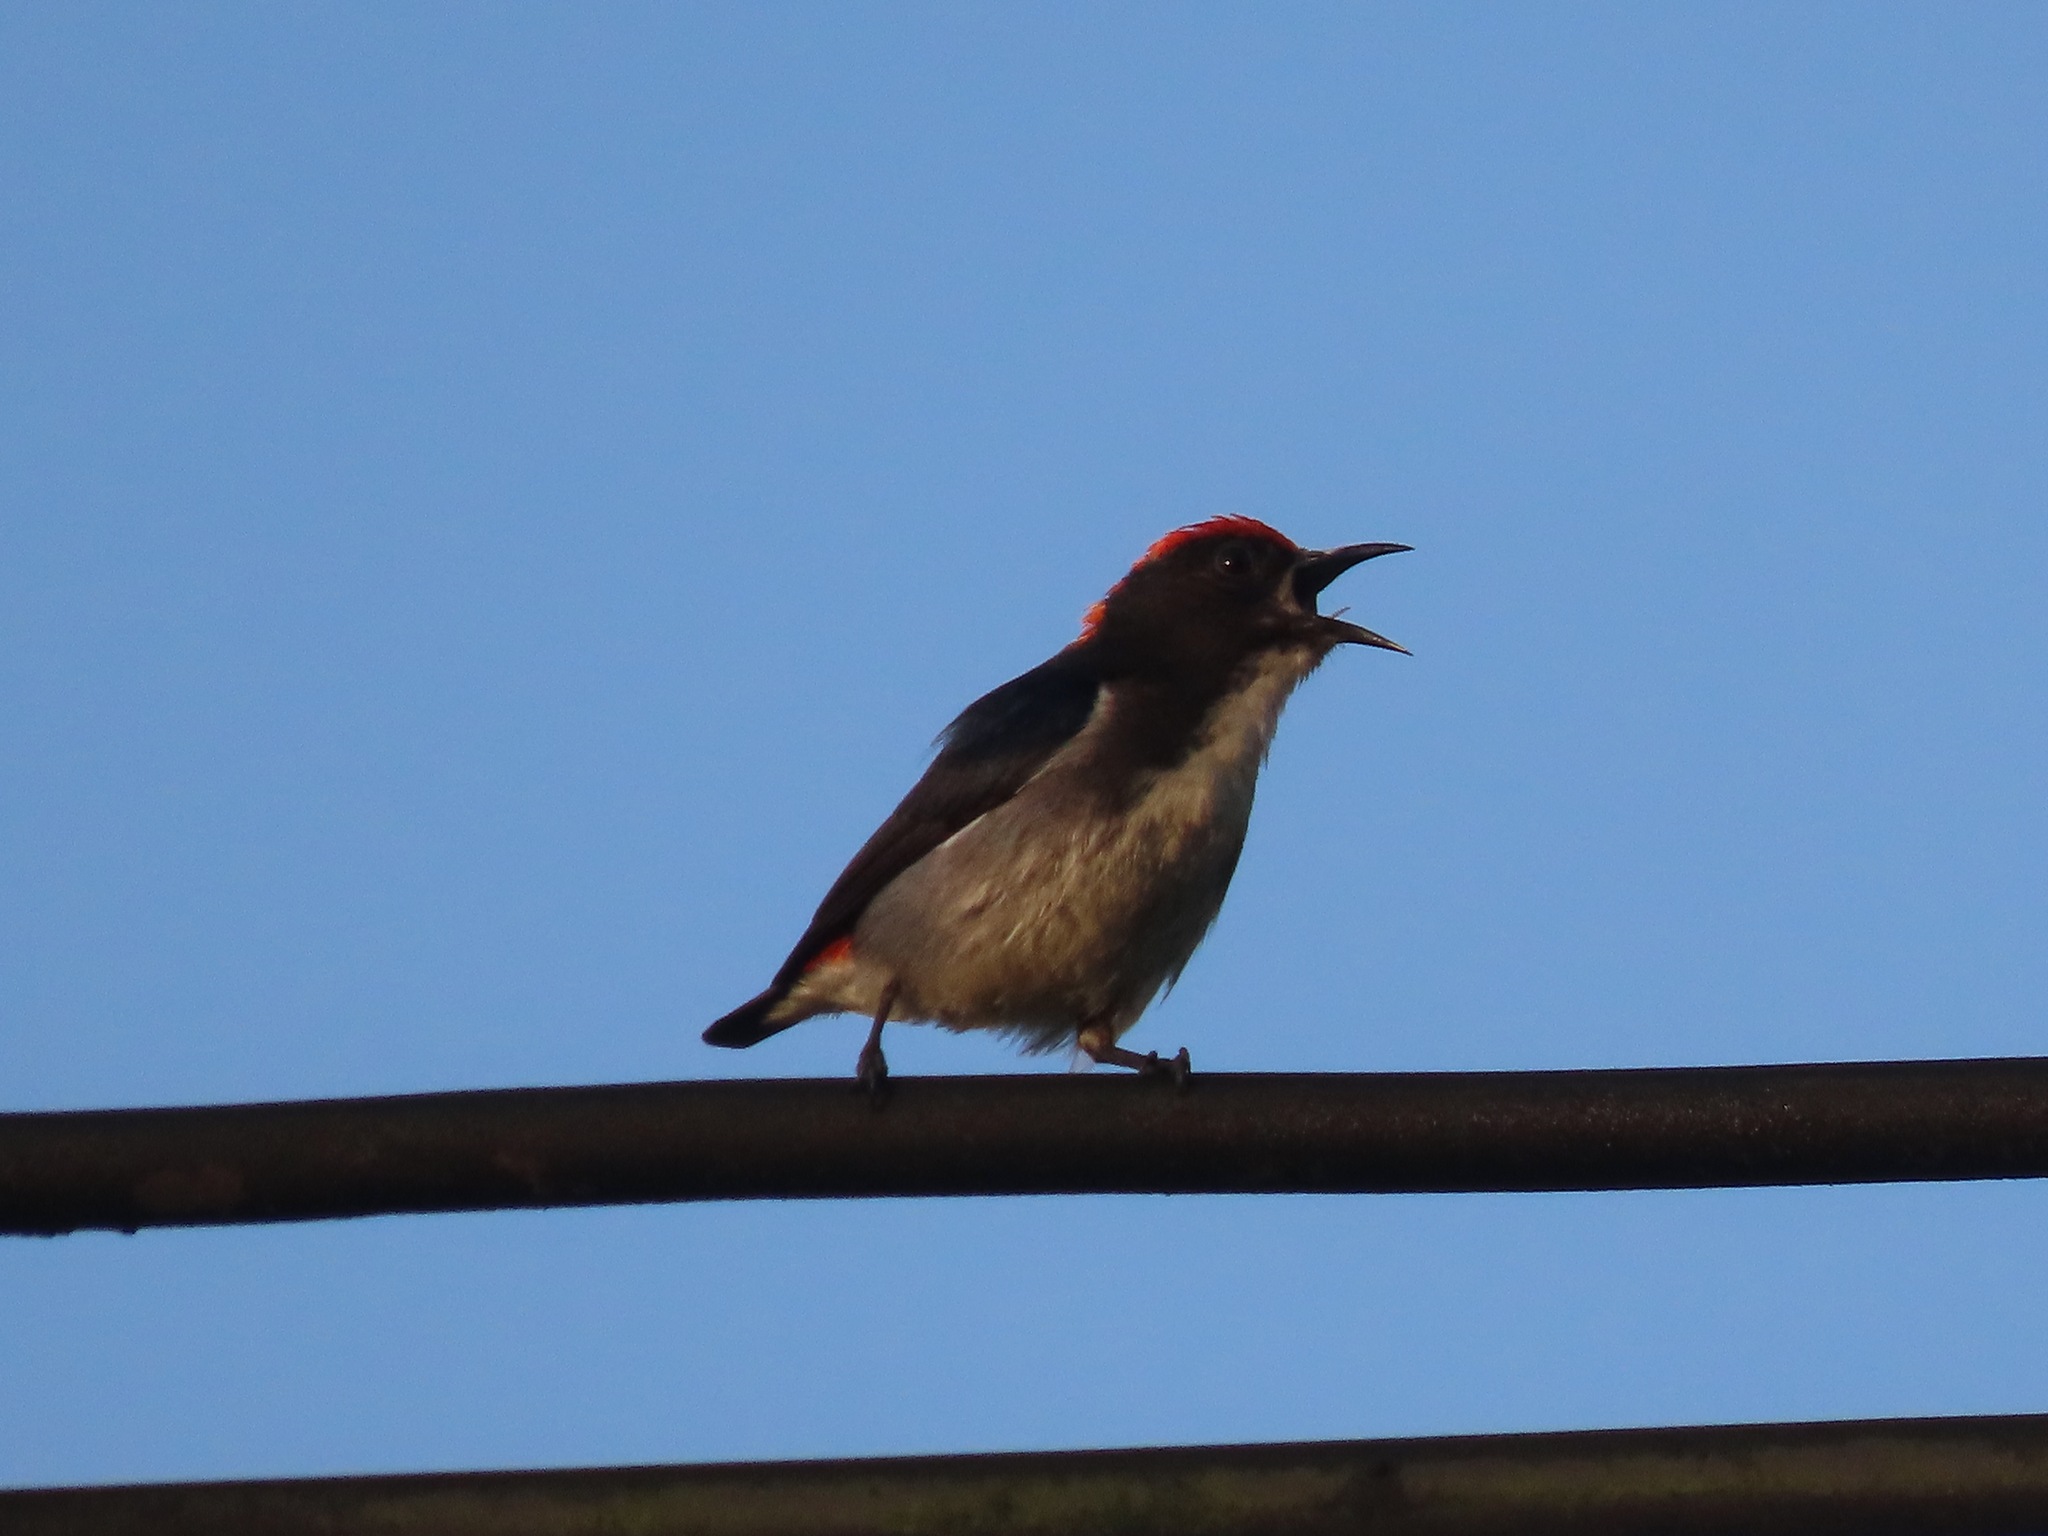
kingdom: Animalia
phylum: Chordata
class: Aves
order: Passeriformes
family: Dicaeidae
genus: Dicaeum
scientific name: Dicaeum cruentatum
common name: Scarlet-backed flowerpecker
